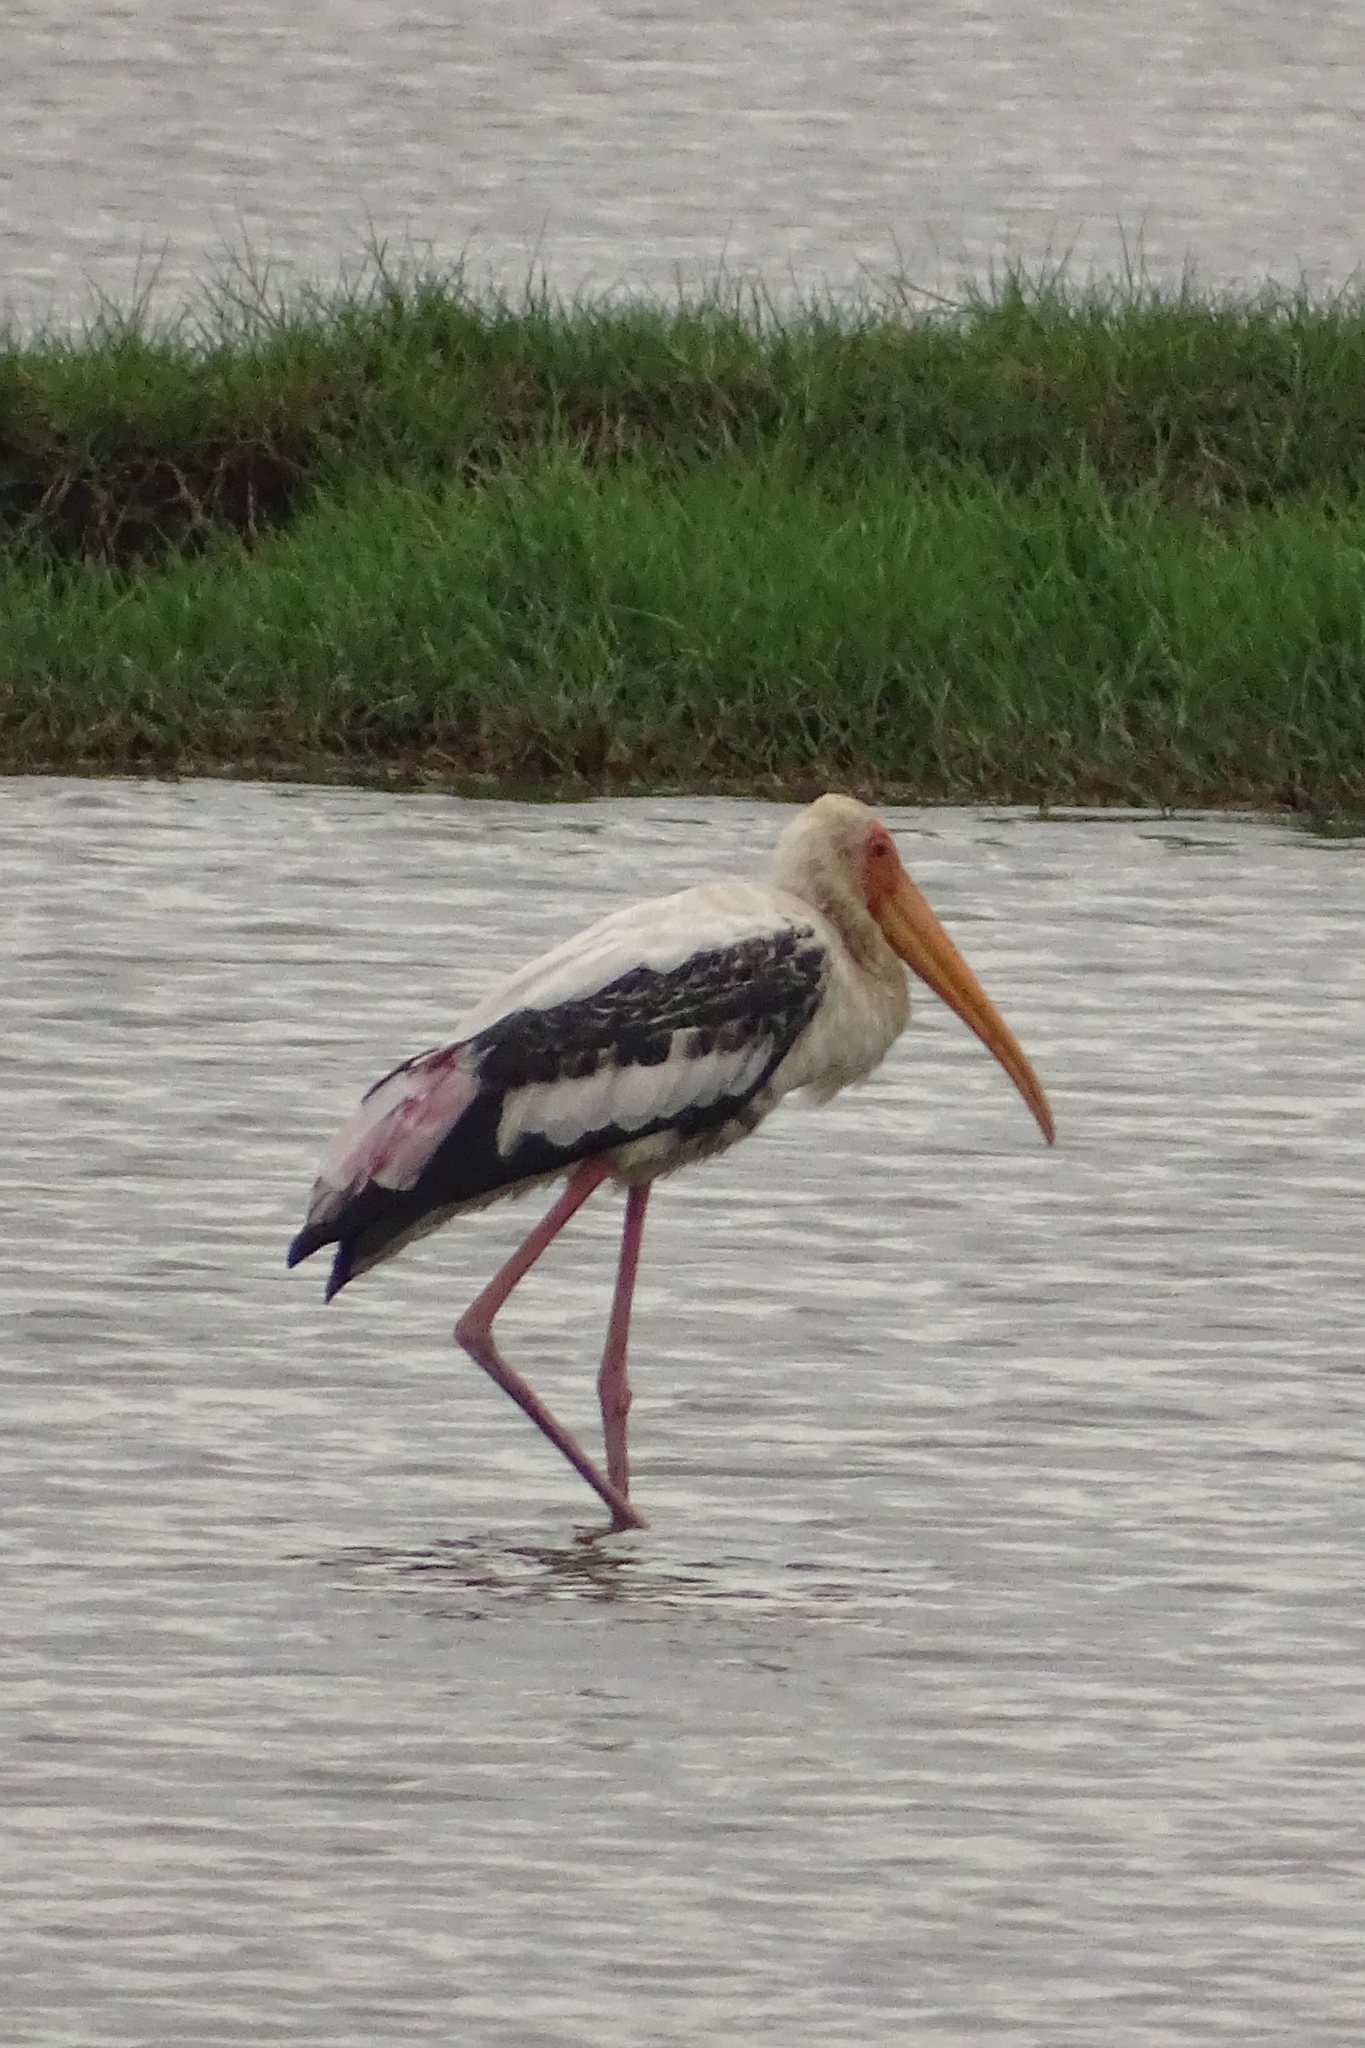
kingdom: Animalia
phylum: Chordata
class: Aves
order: Ciconiiformes
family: Ciconiidae
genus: Mycteria
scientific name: Mycteria leucocephala
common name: Painted stork
